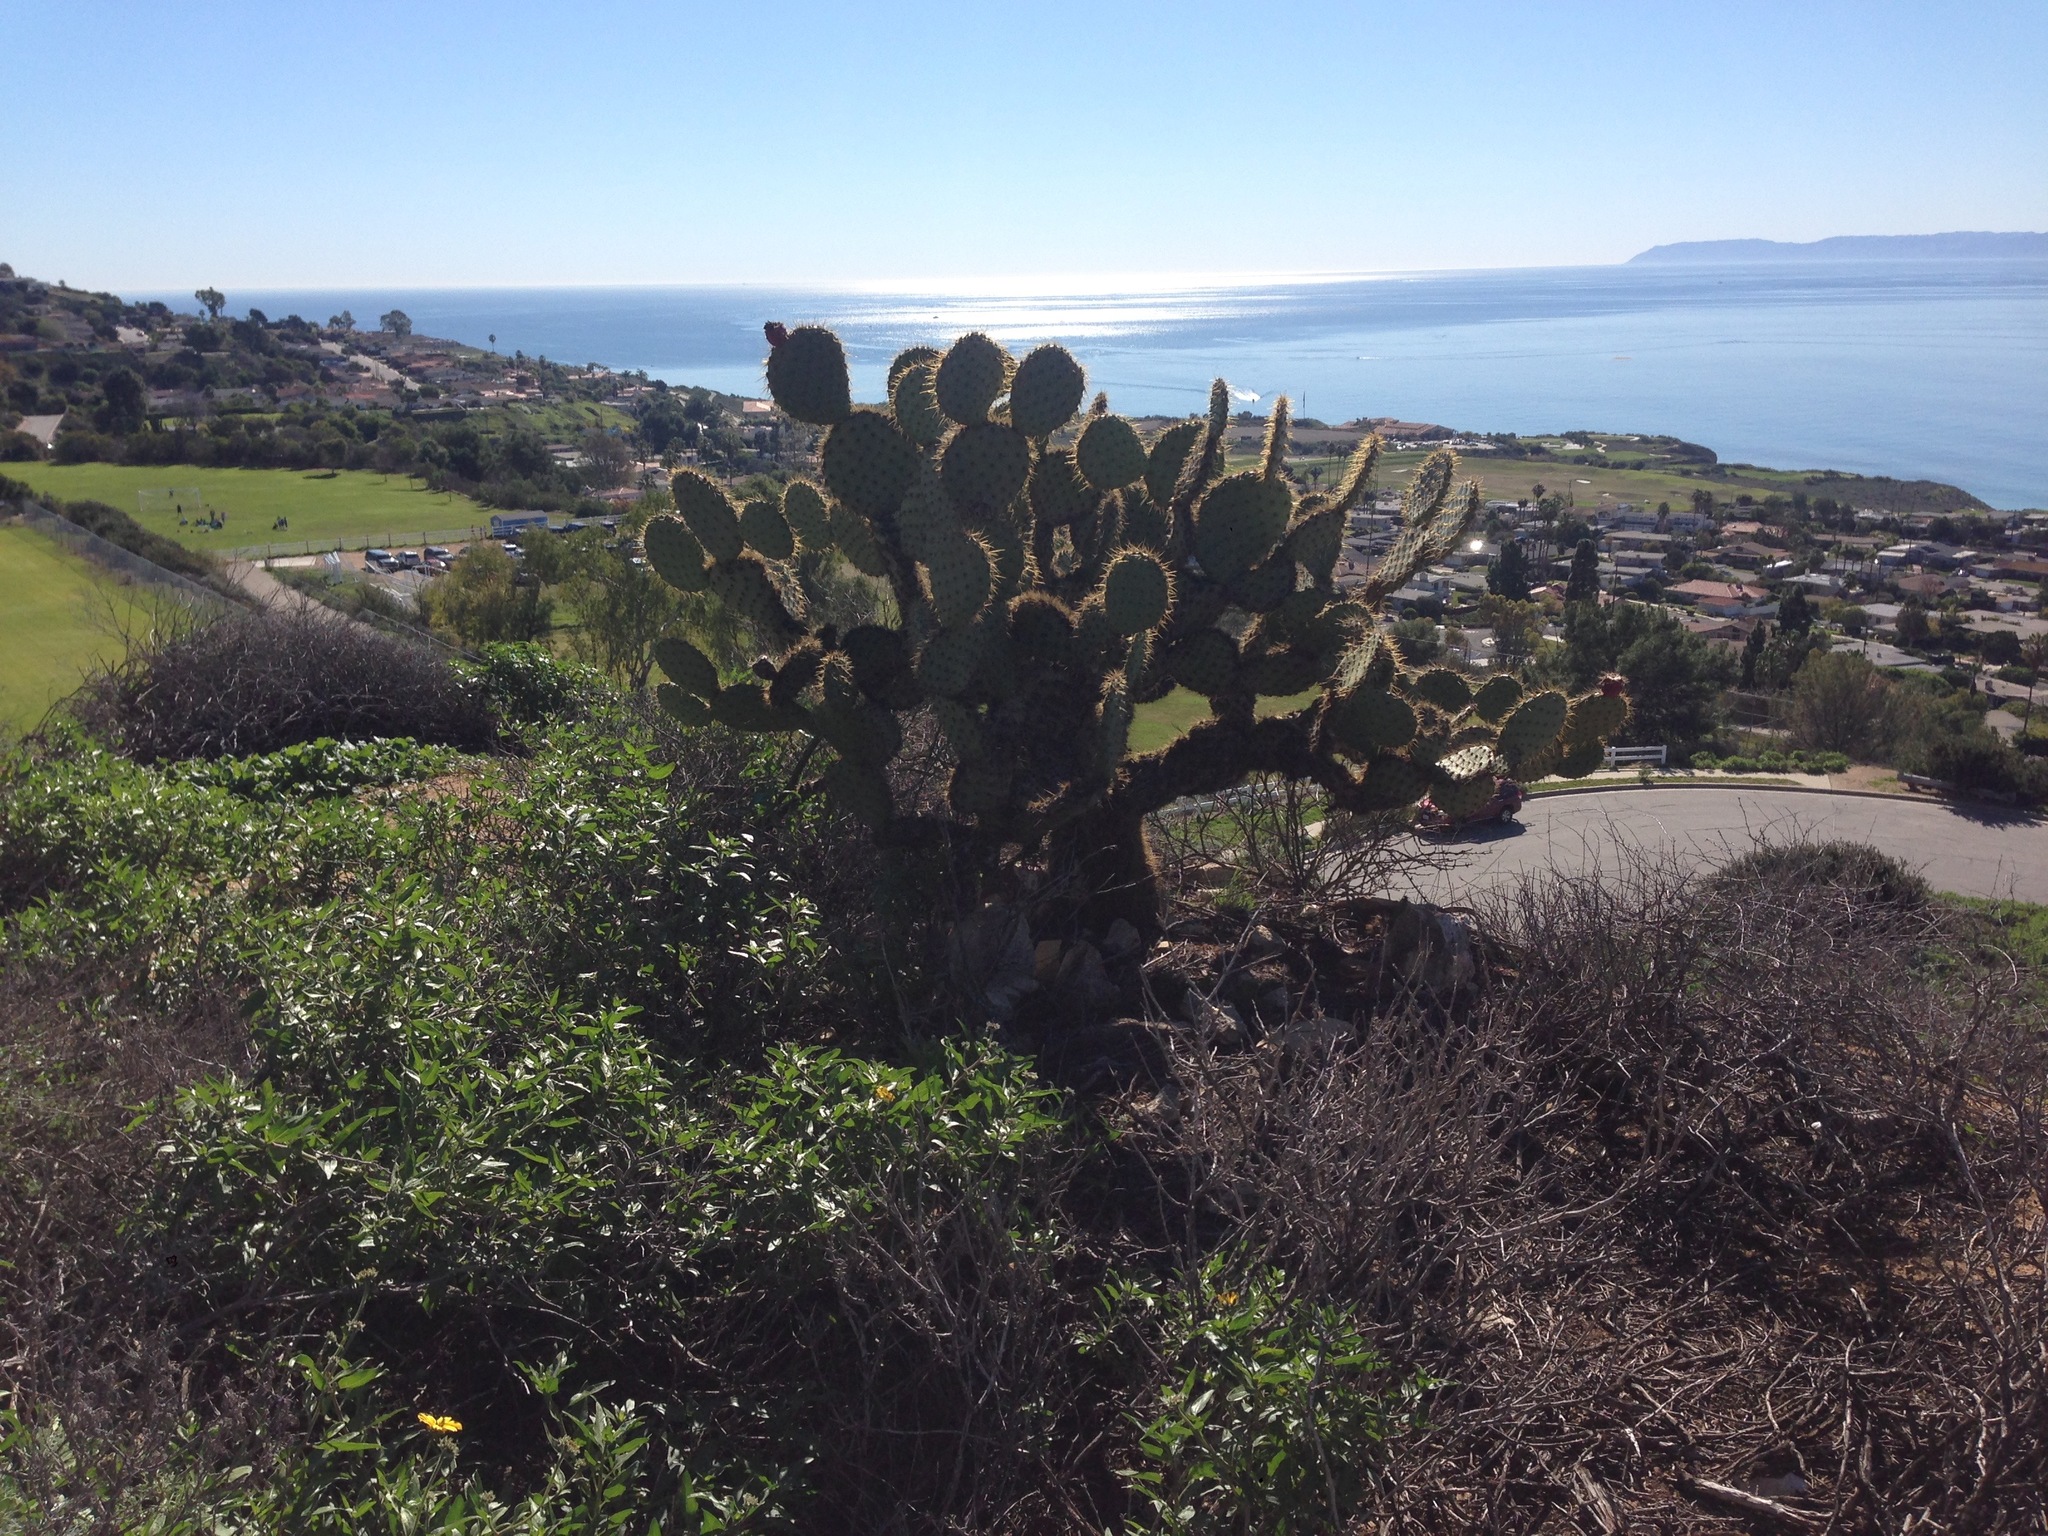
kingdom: Plantae
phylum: Tracheophyta
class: Magnoliopsida
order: Caryophyllales
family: Cactaceae
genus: Opuntia
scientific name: Opuntia oricola
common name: Chaparral prickly-pear
